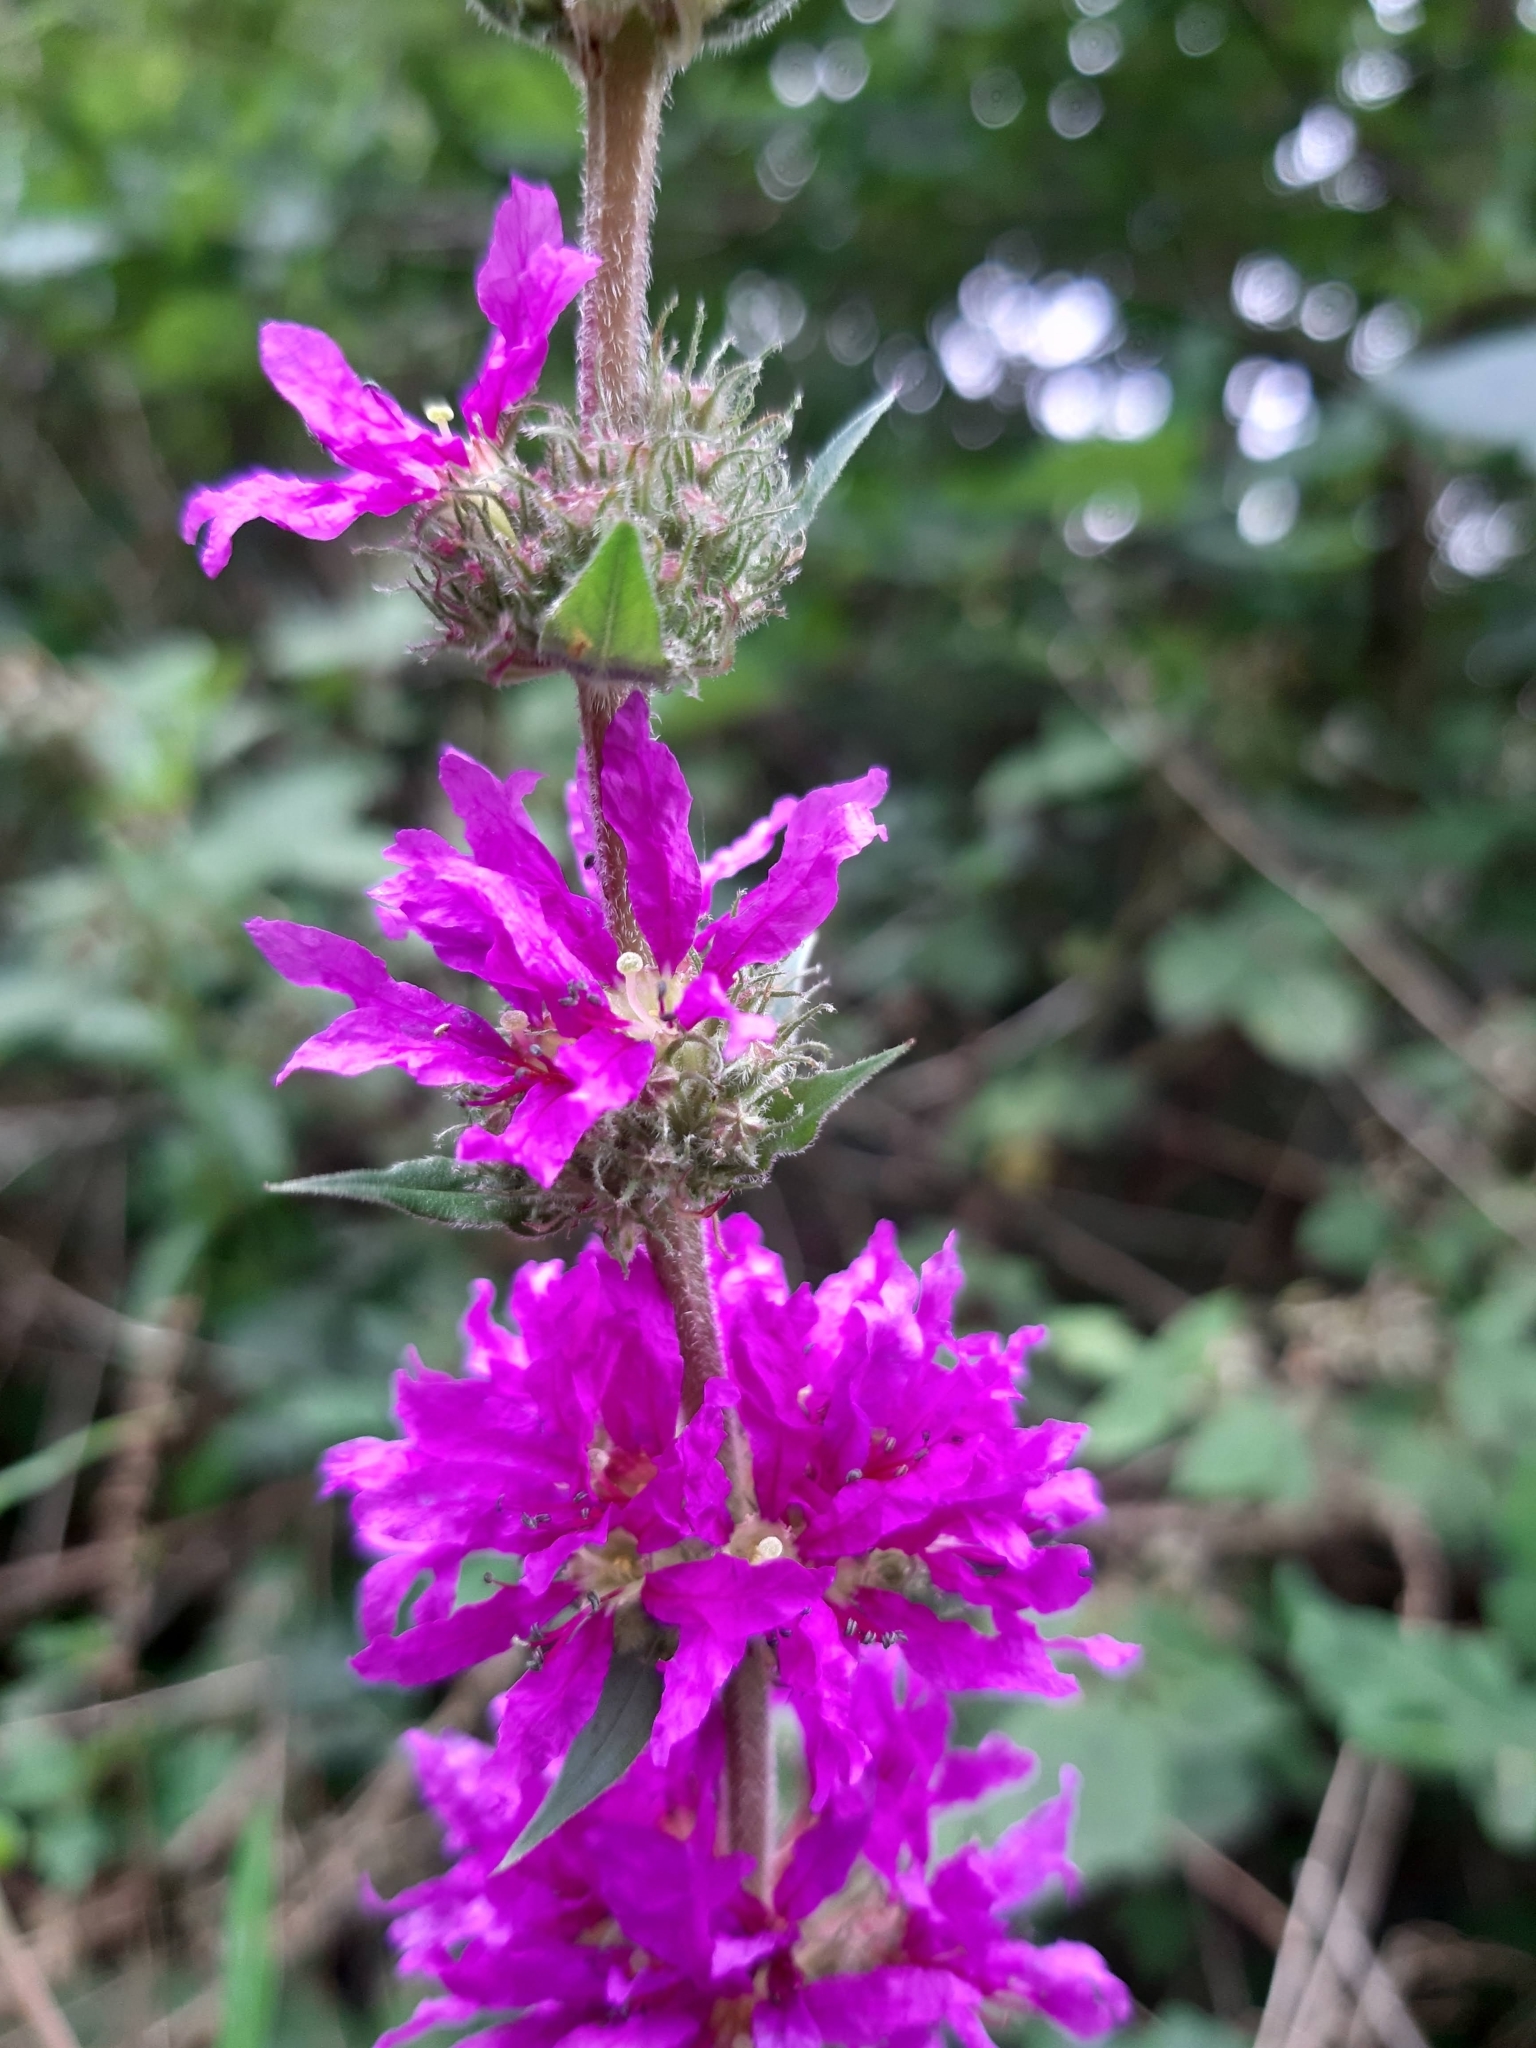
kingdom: Plantae
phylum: Tracheophyta
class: Magnoliopsida
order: Myrtales
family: Lythraceae
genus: Lythrum
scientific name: Lythrum salicaria
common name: Purple loosestrife
